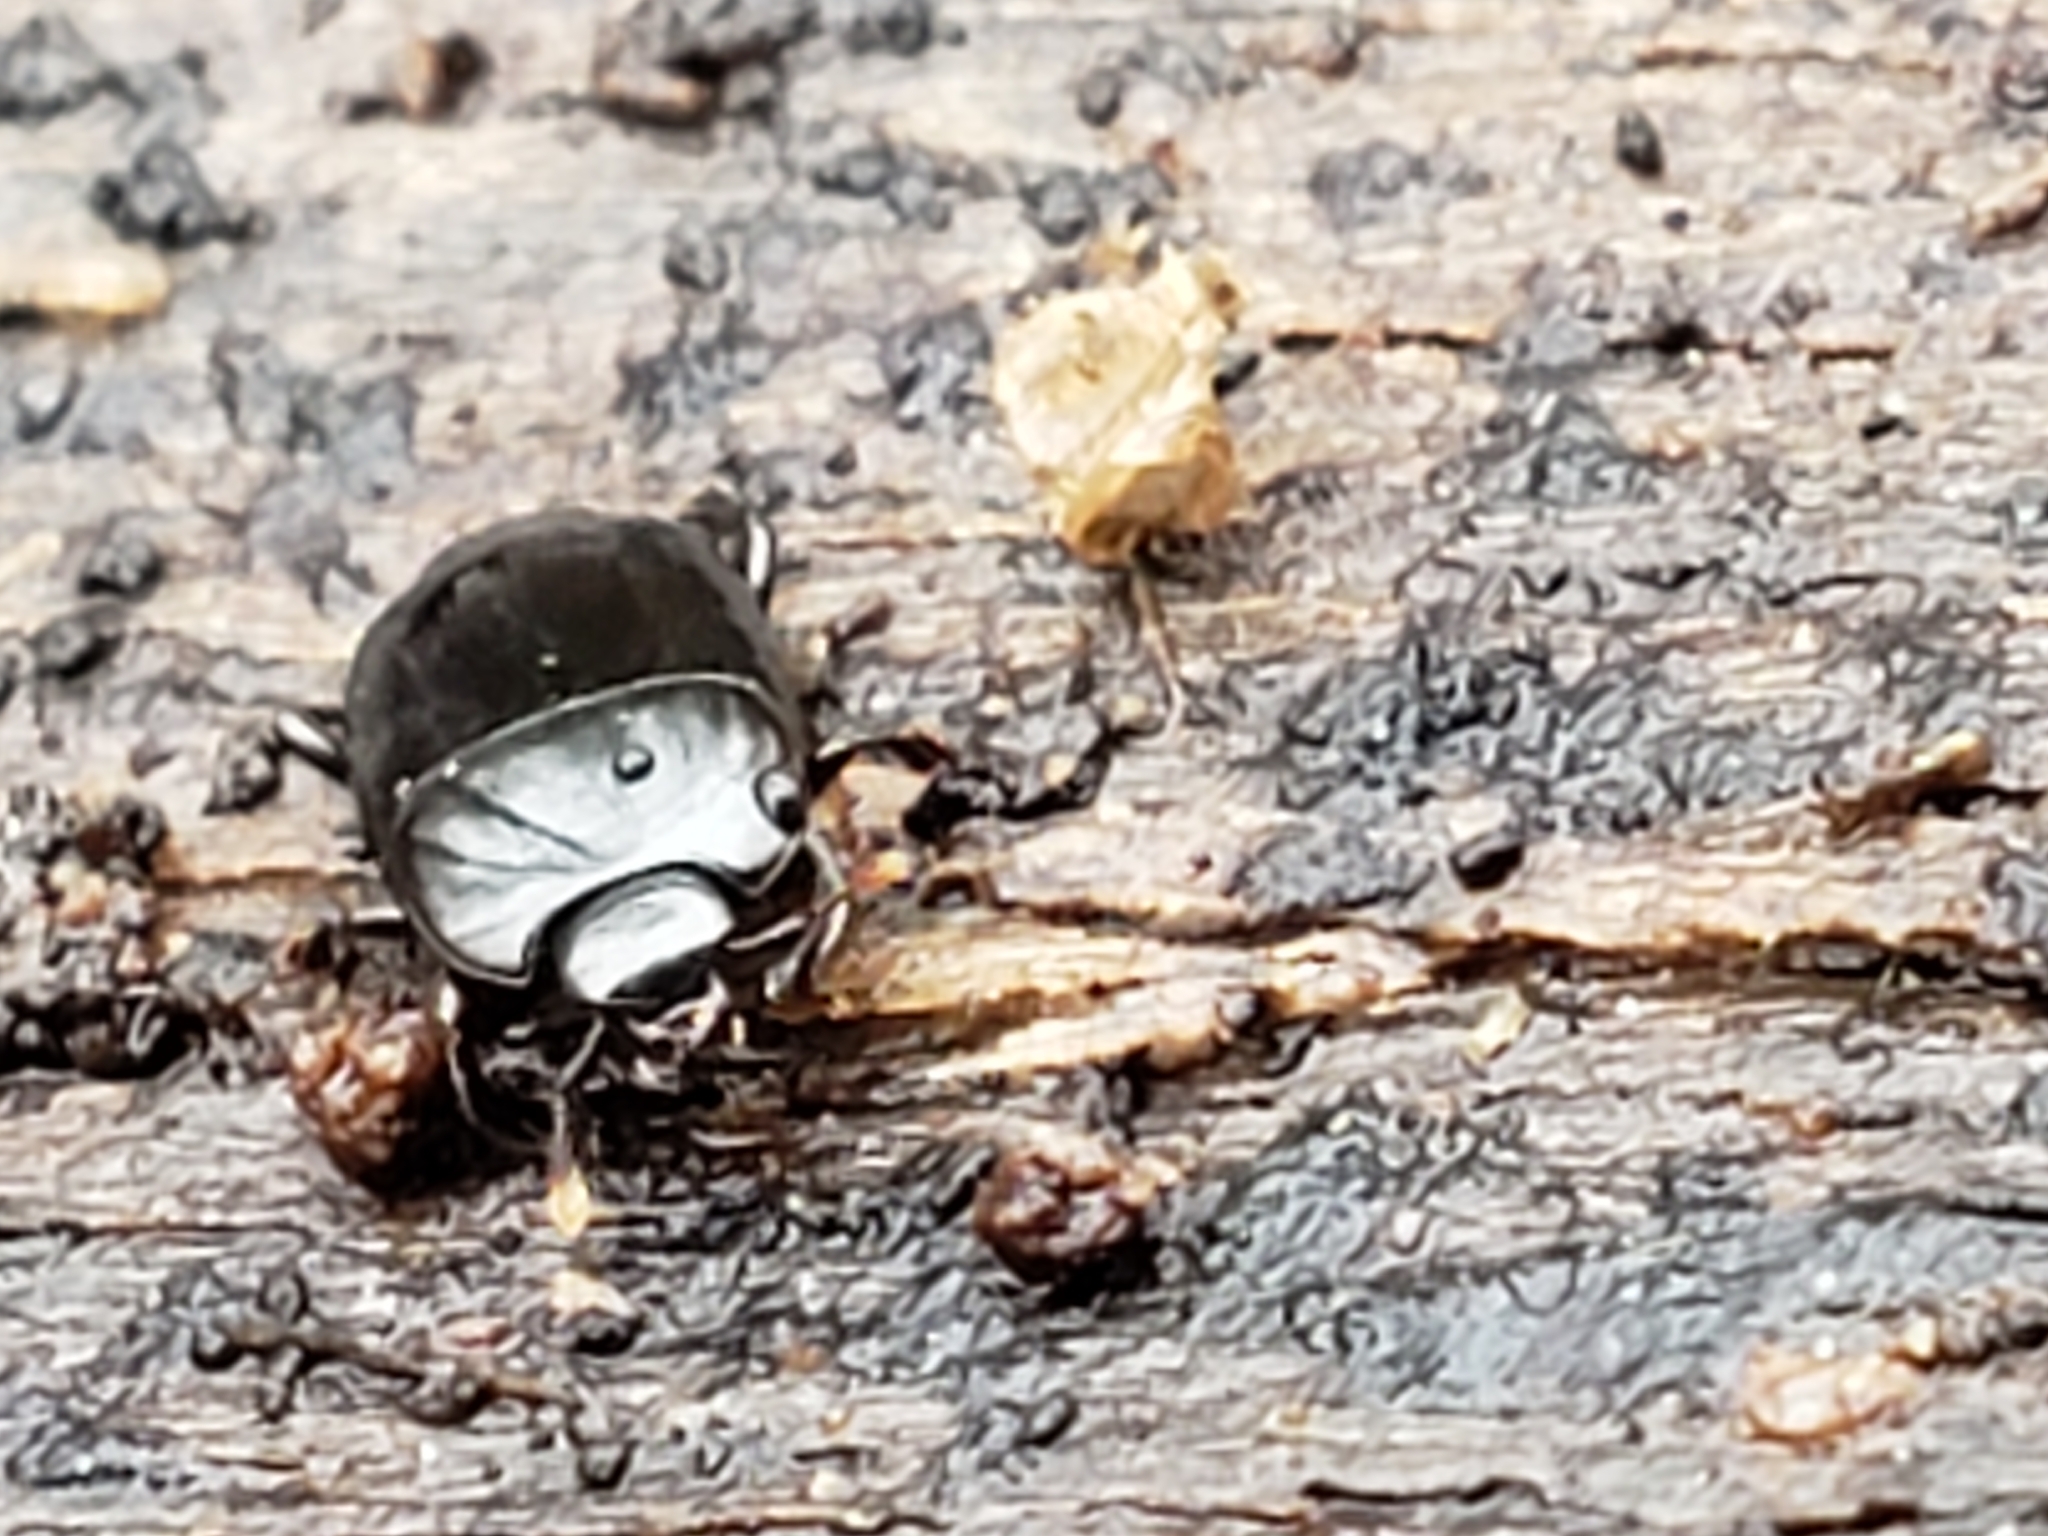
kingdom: Animalia
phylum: Arthropoda
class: Insecta
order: Coleoptera
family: Histeridae
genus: Platylomalus
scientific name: Platylomalus aequalis
